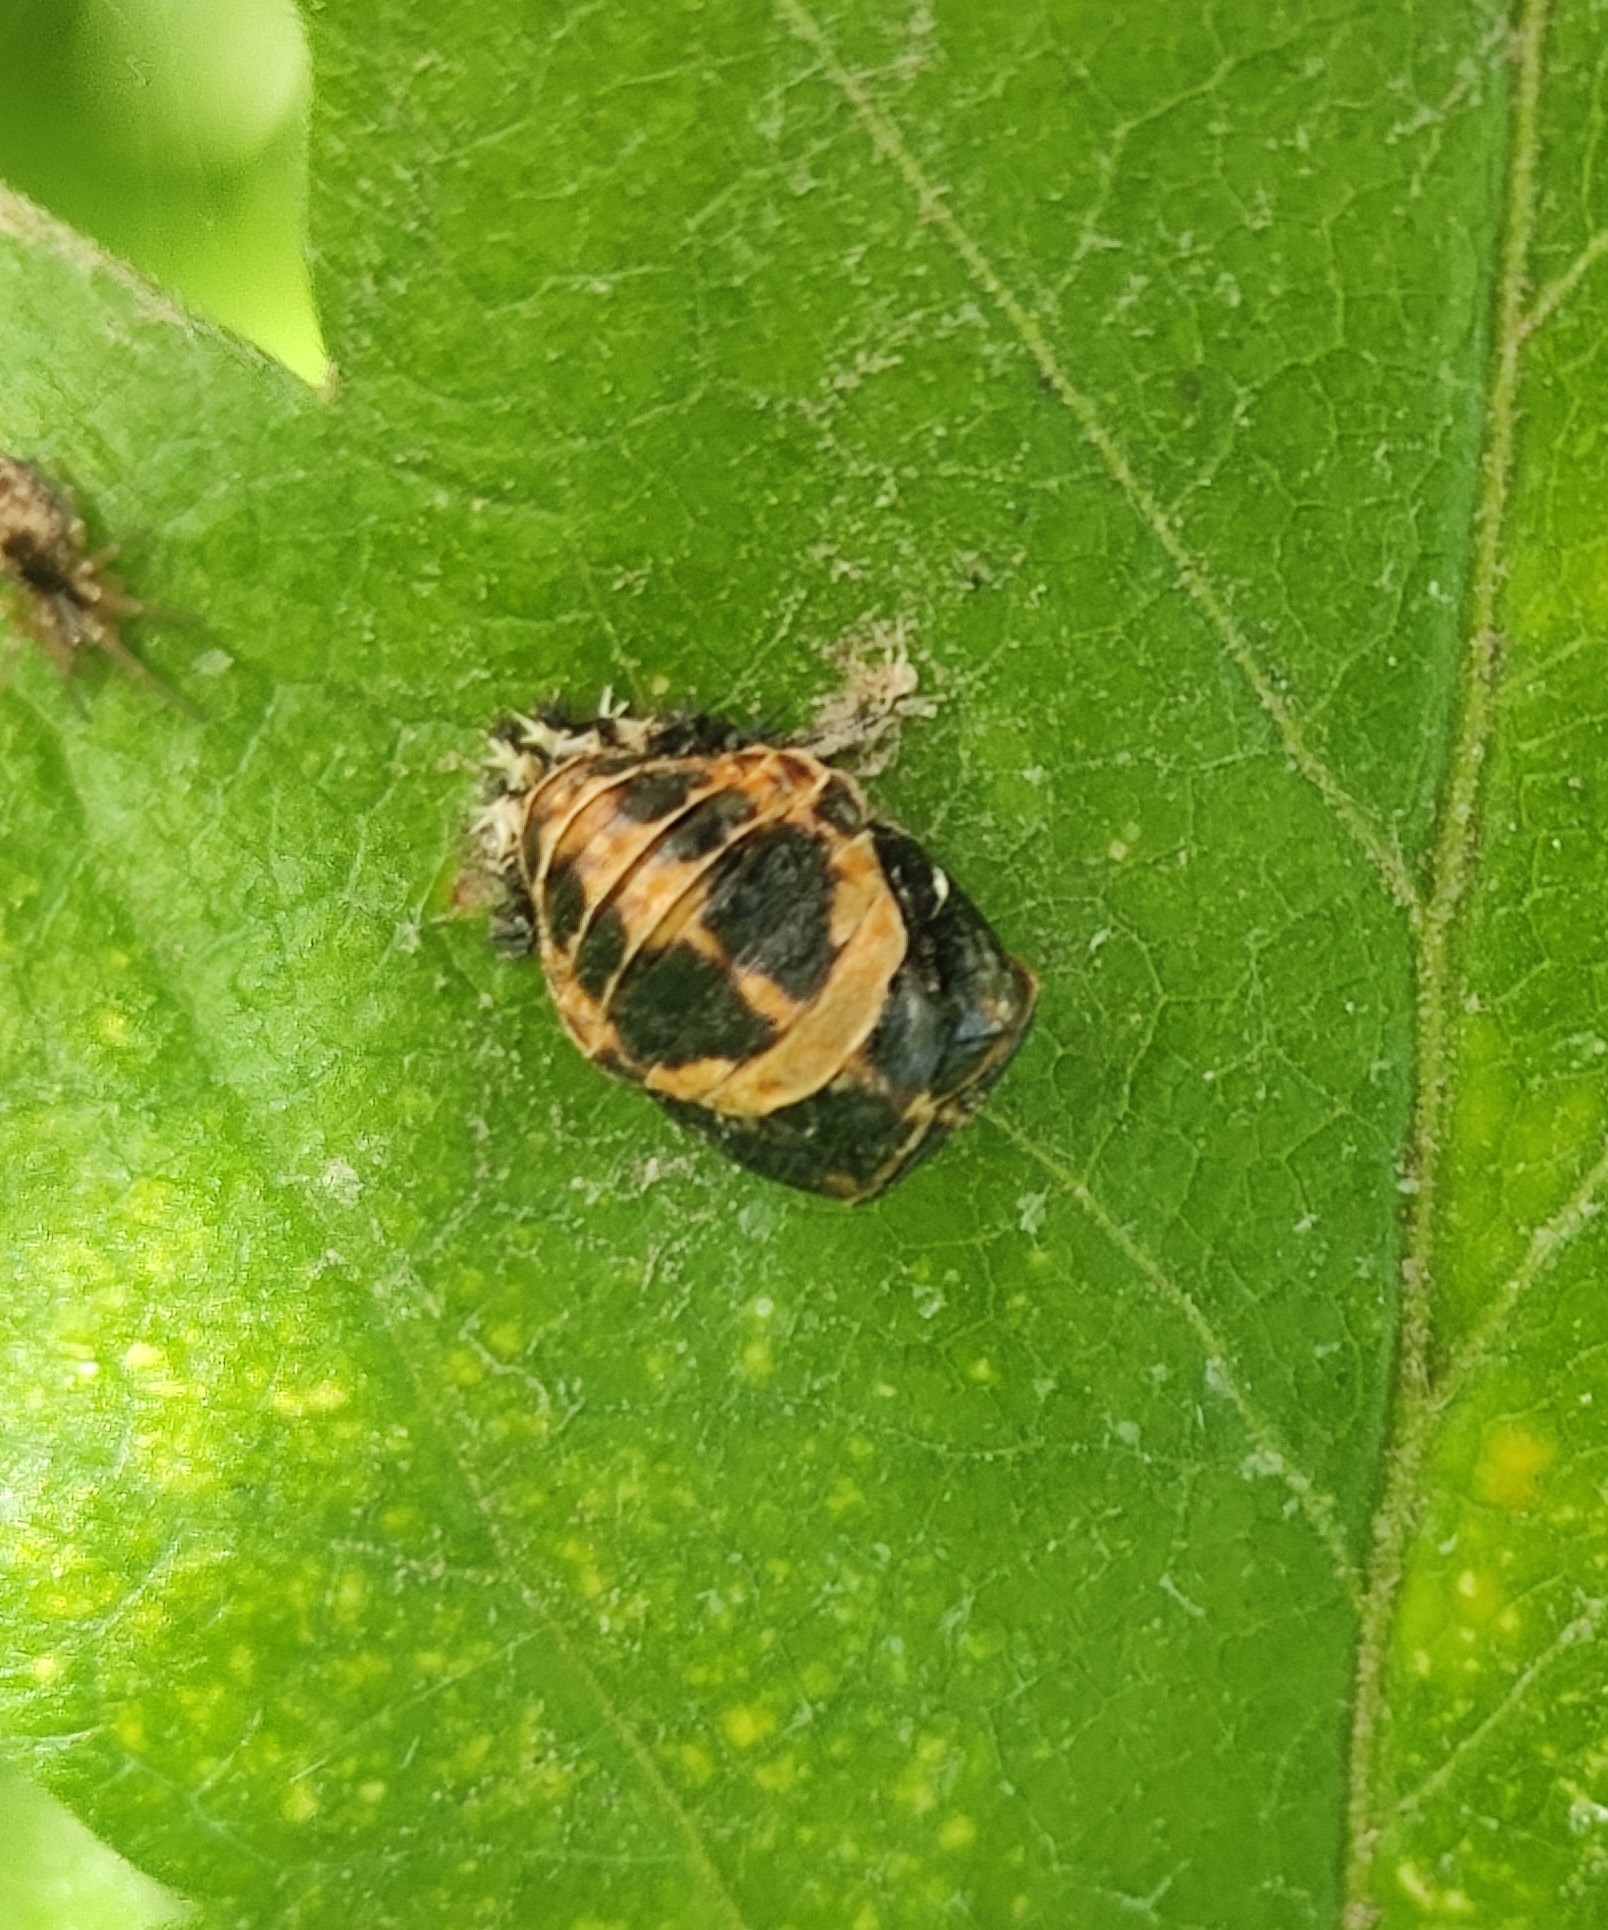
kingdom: Animalia
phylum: Arthropoda
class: Insecta
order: Coleoptera
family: Coccinellidae
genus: Harmonia
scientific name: Harmonia axyridis
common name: Harlequin ladybird
